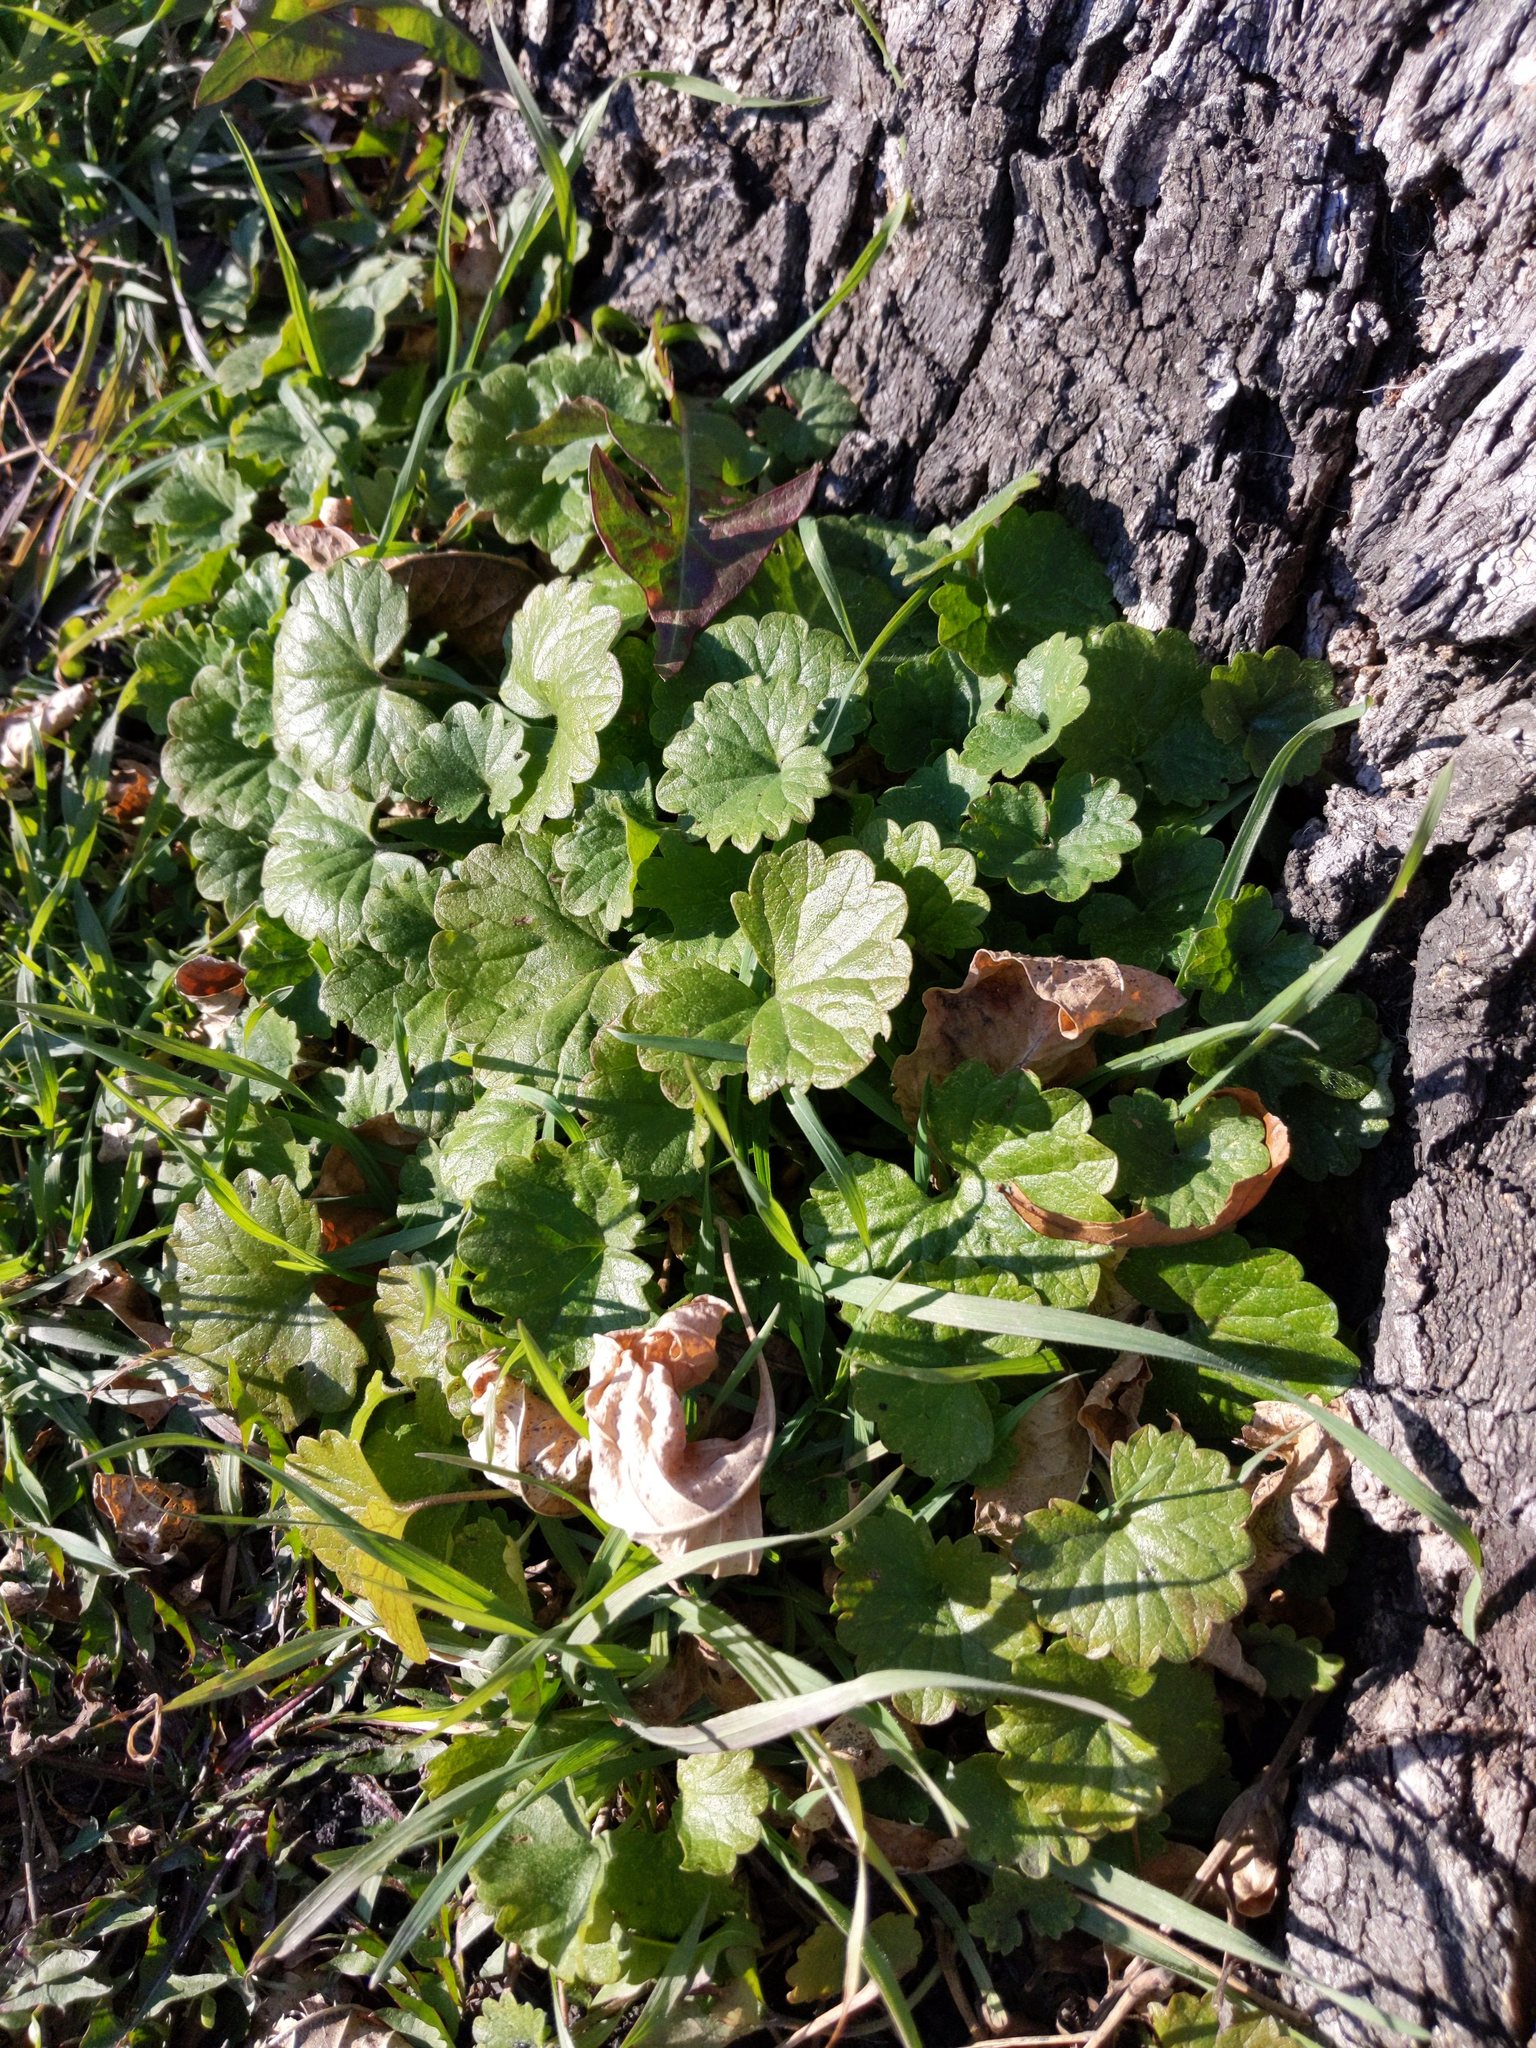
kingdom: Plantae
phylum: Tracheophyta
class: Magnoliopsida
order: Lamiales
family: Lamiaceae
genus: Glechoma
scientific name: Glechoma hederacea
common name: Ground ivy
